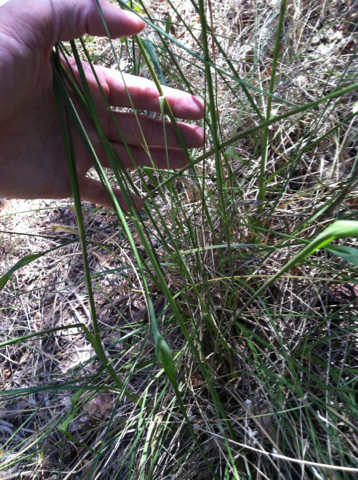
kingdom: Plantae
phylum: Tracheophyta
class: Liliopsida
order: Poales
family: Poaceae
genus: Tridens
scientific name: Tridens flavus
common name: Purpletop
